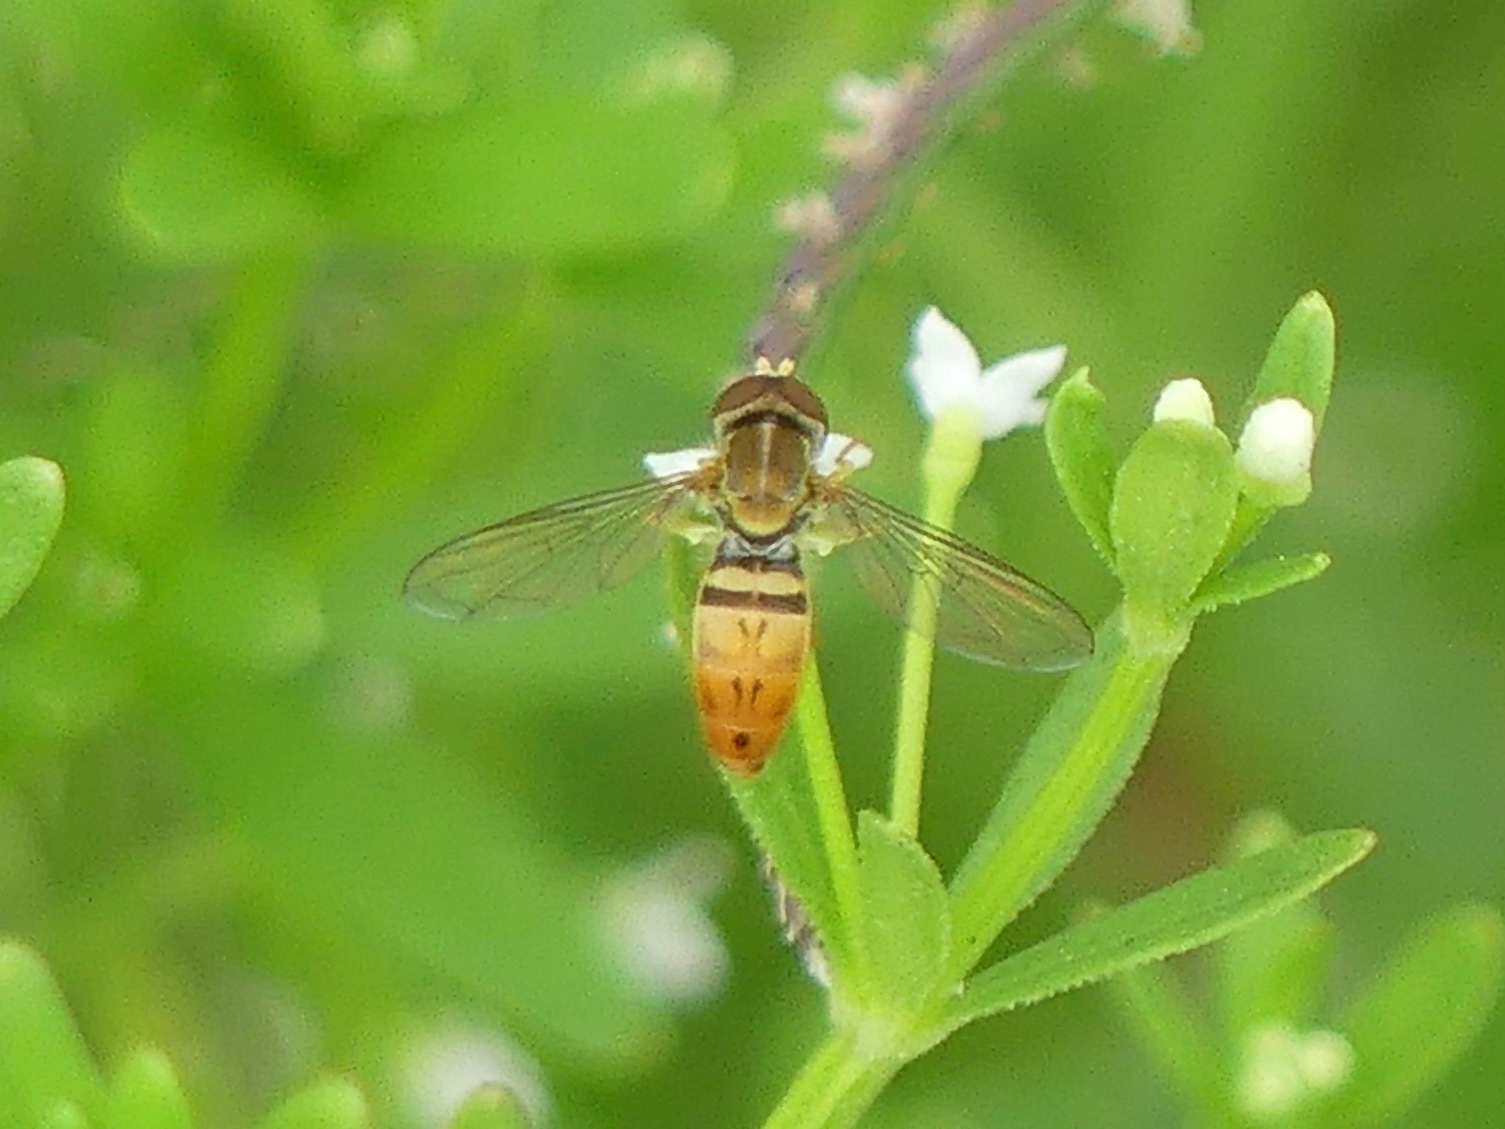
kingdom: Animalia
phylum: Arthropoda
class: Insecta
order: Diptera
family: Syrphidae
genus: Toxomerus
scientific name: Toxomerus marginatus
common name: Syrphid fly
